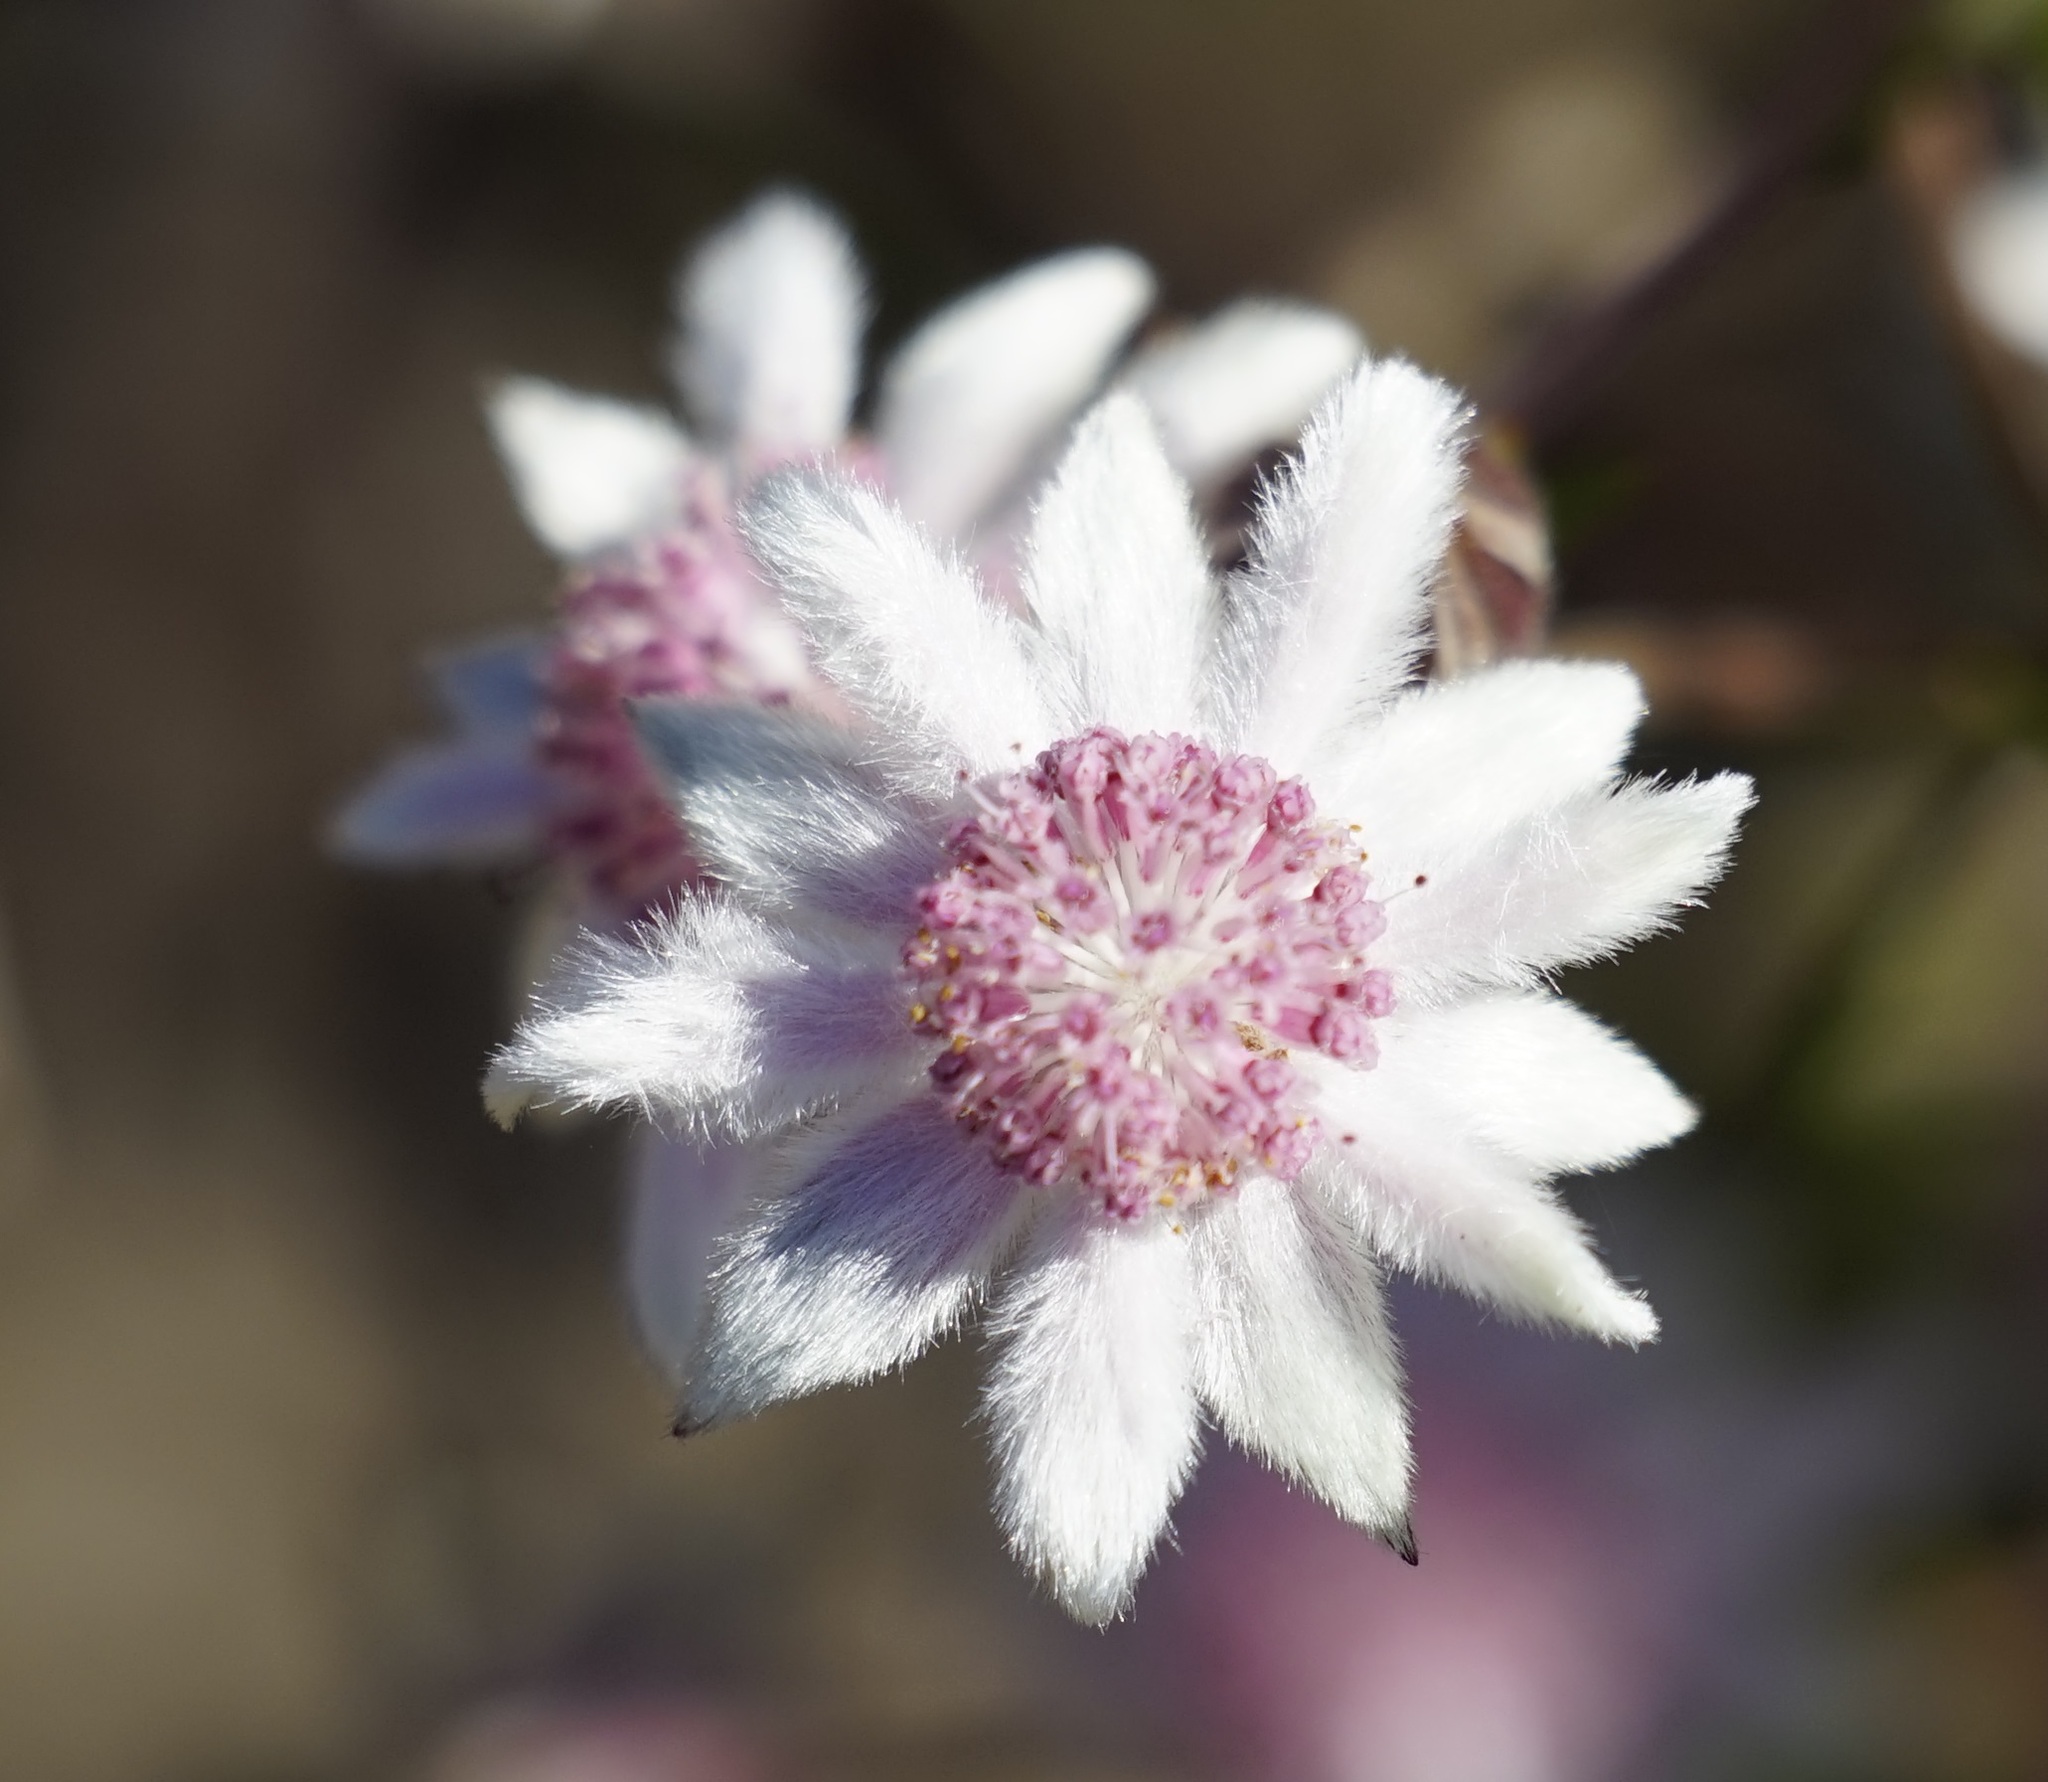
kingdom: Plantae
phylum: Tracheophyta
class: Magnoliopsida
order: Apiales
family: Apiaceae
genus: Actinotus
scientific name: Actinotus forsythii
